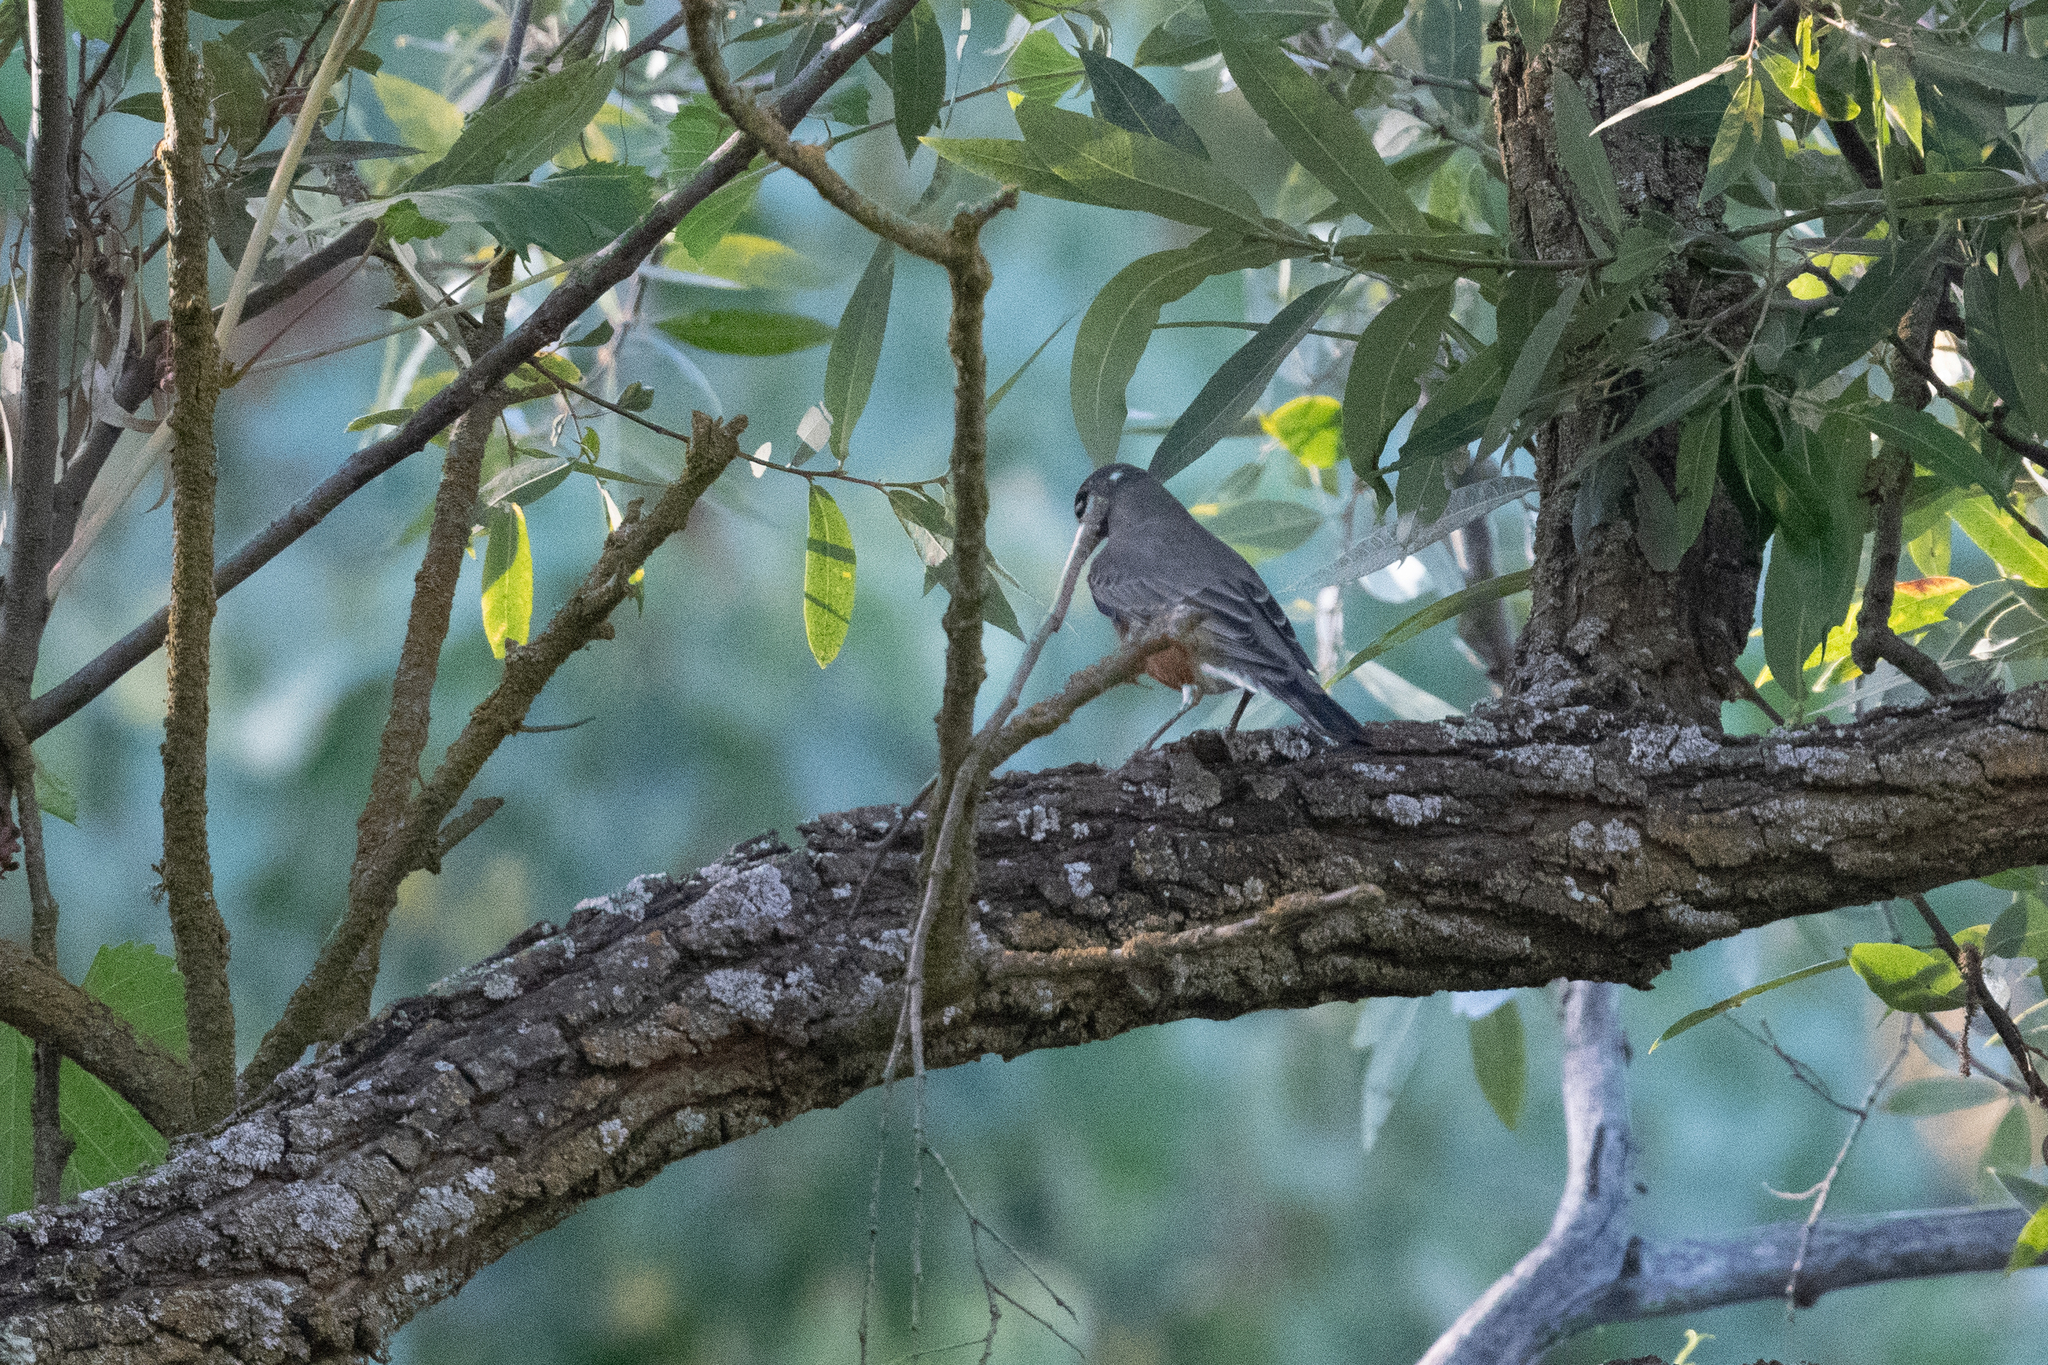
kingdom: Animalia
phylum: Chordata
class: Aves
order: Passeriformes
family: Turdidae
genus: Turdus
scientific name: Turdus migratorius
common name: American robin
